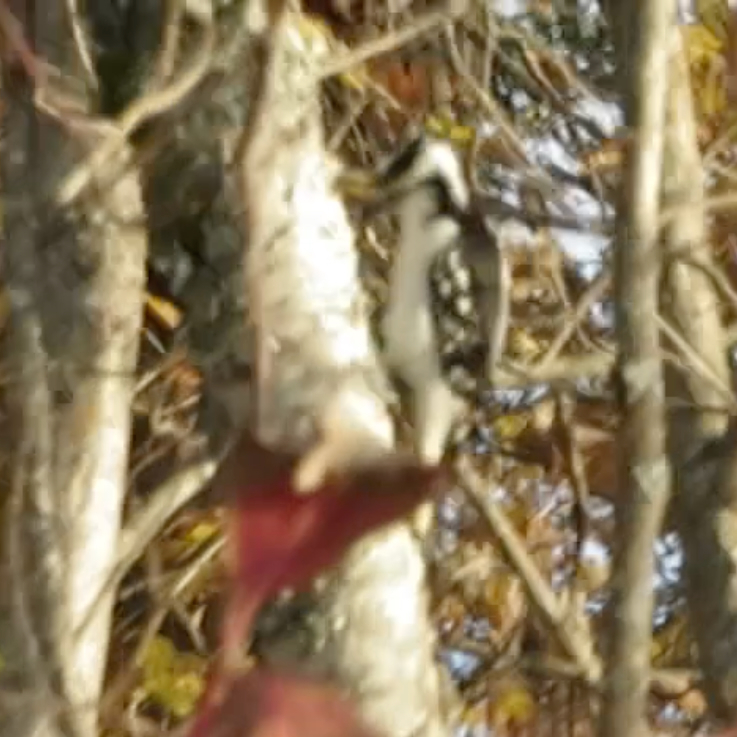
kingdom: Animalia
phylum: Chordata
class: Aves
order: Piciformes
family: Picidae
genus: Leuconotopicus
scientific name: Leuconotopicus villosus
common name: Hairy woodpecker
